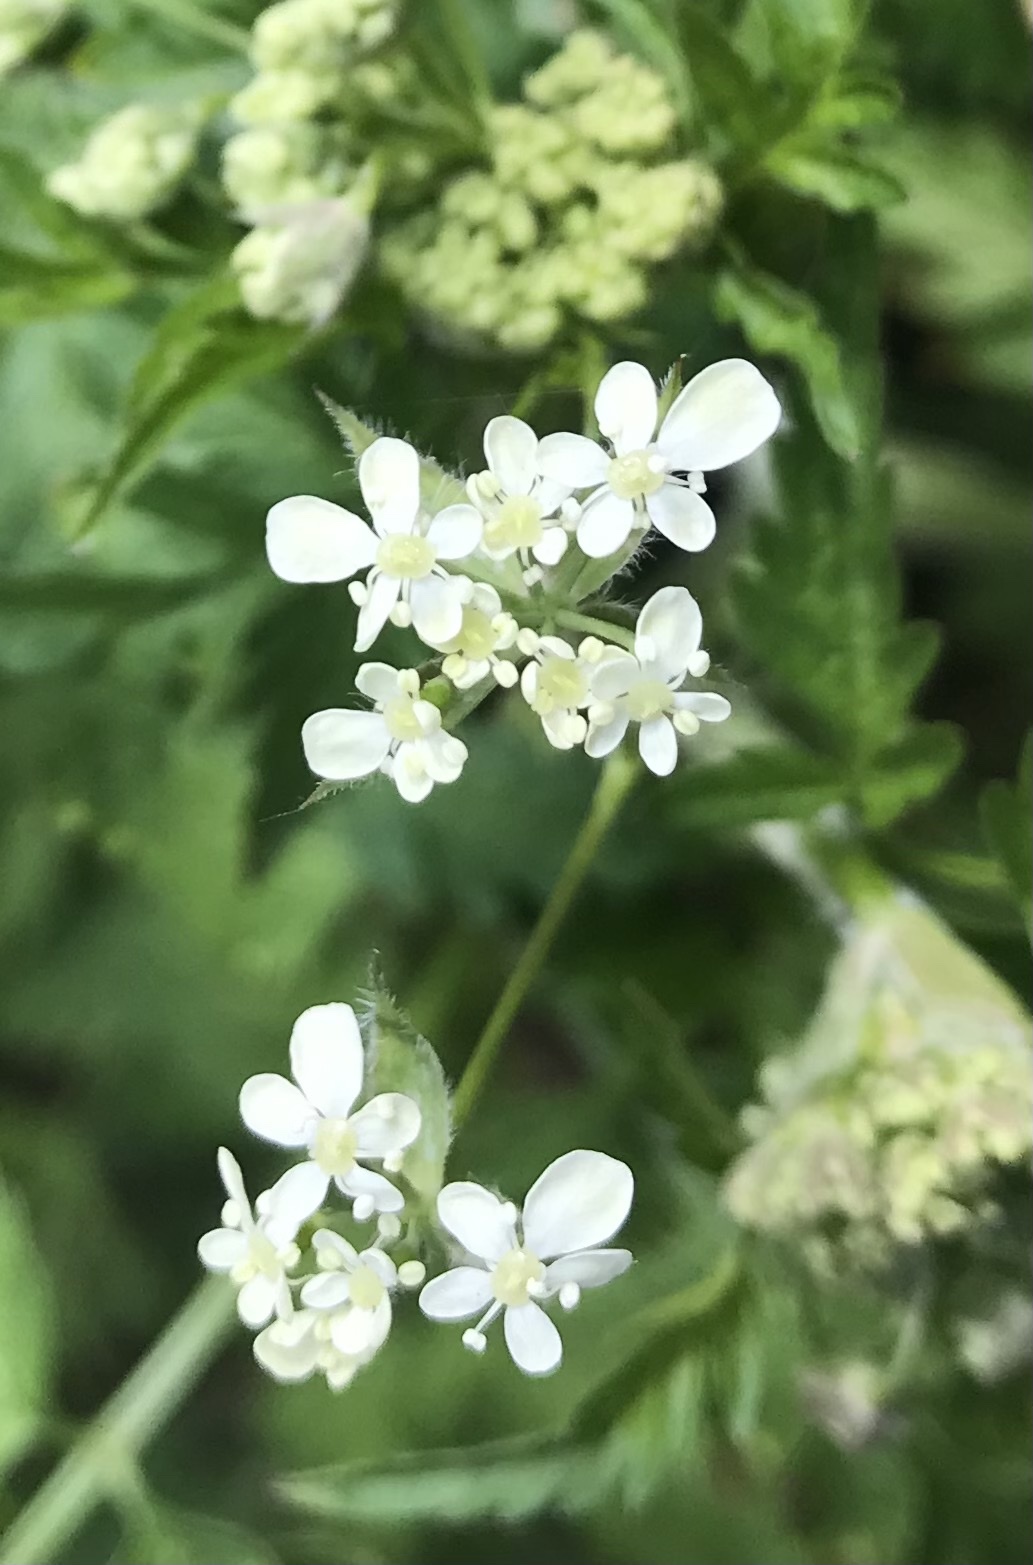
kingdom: Plantae
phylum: Tracheophyta
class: Magnoliopsida
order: Apiales
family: Apiaceae
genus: Anthriscus
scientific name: Anthriscus sylvestris
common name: Cow parsley
